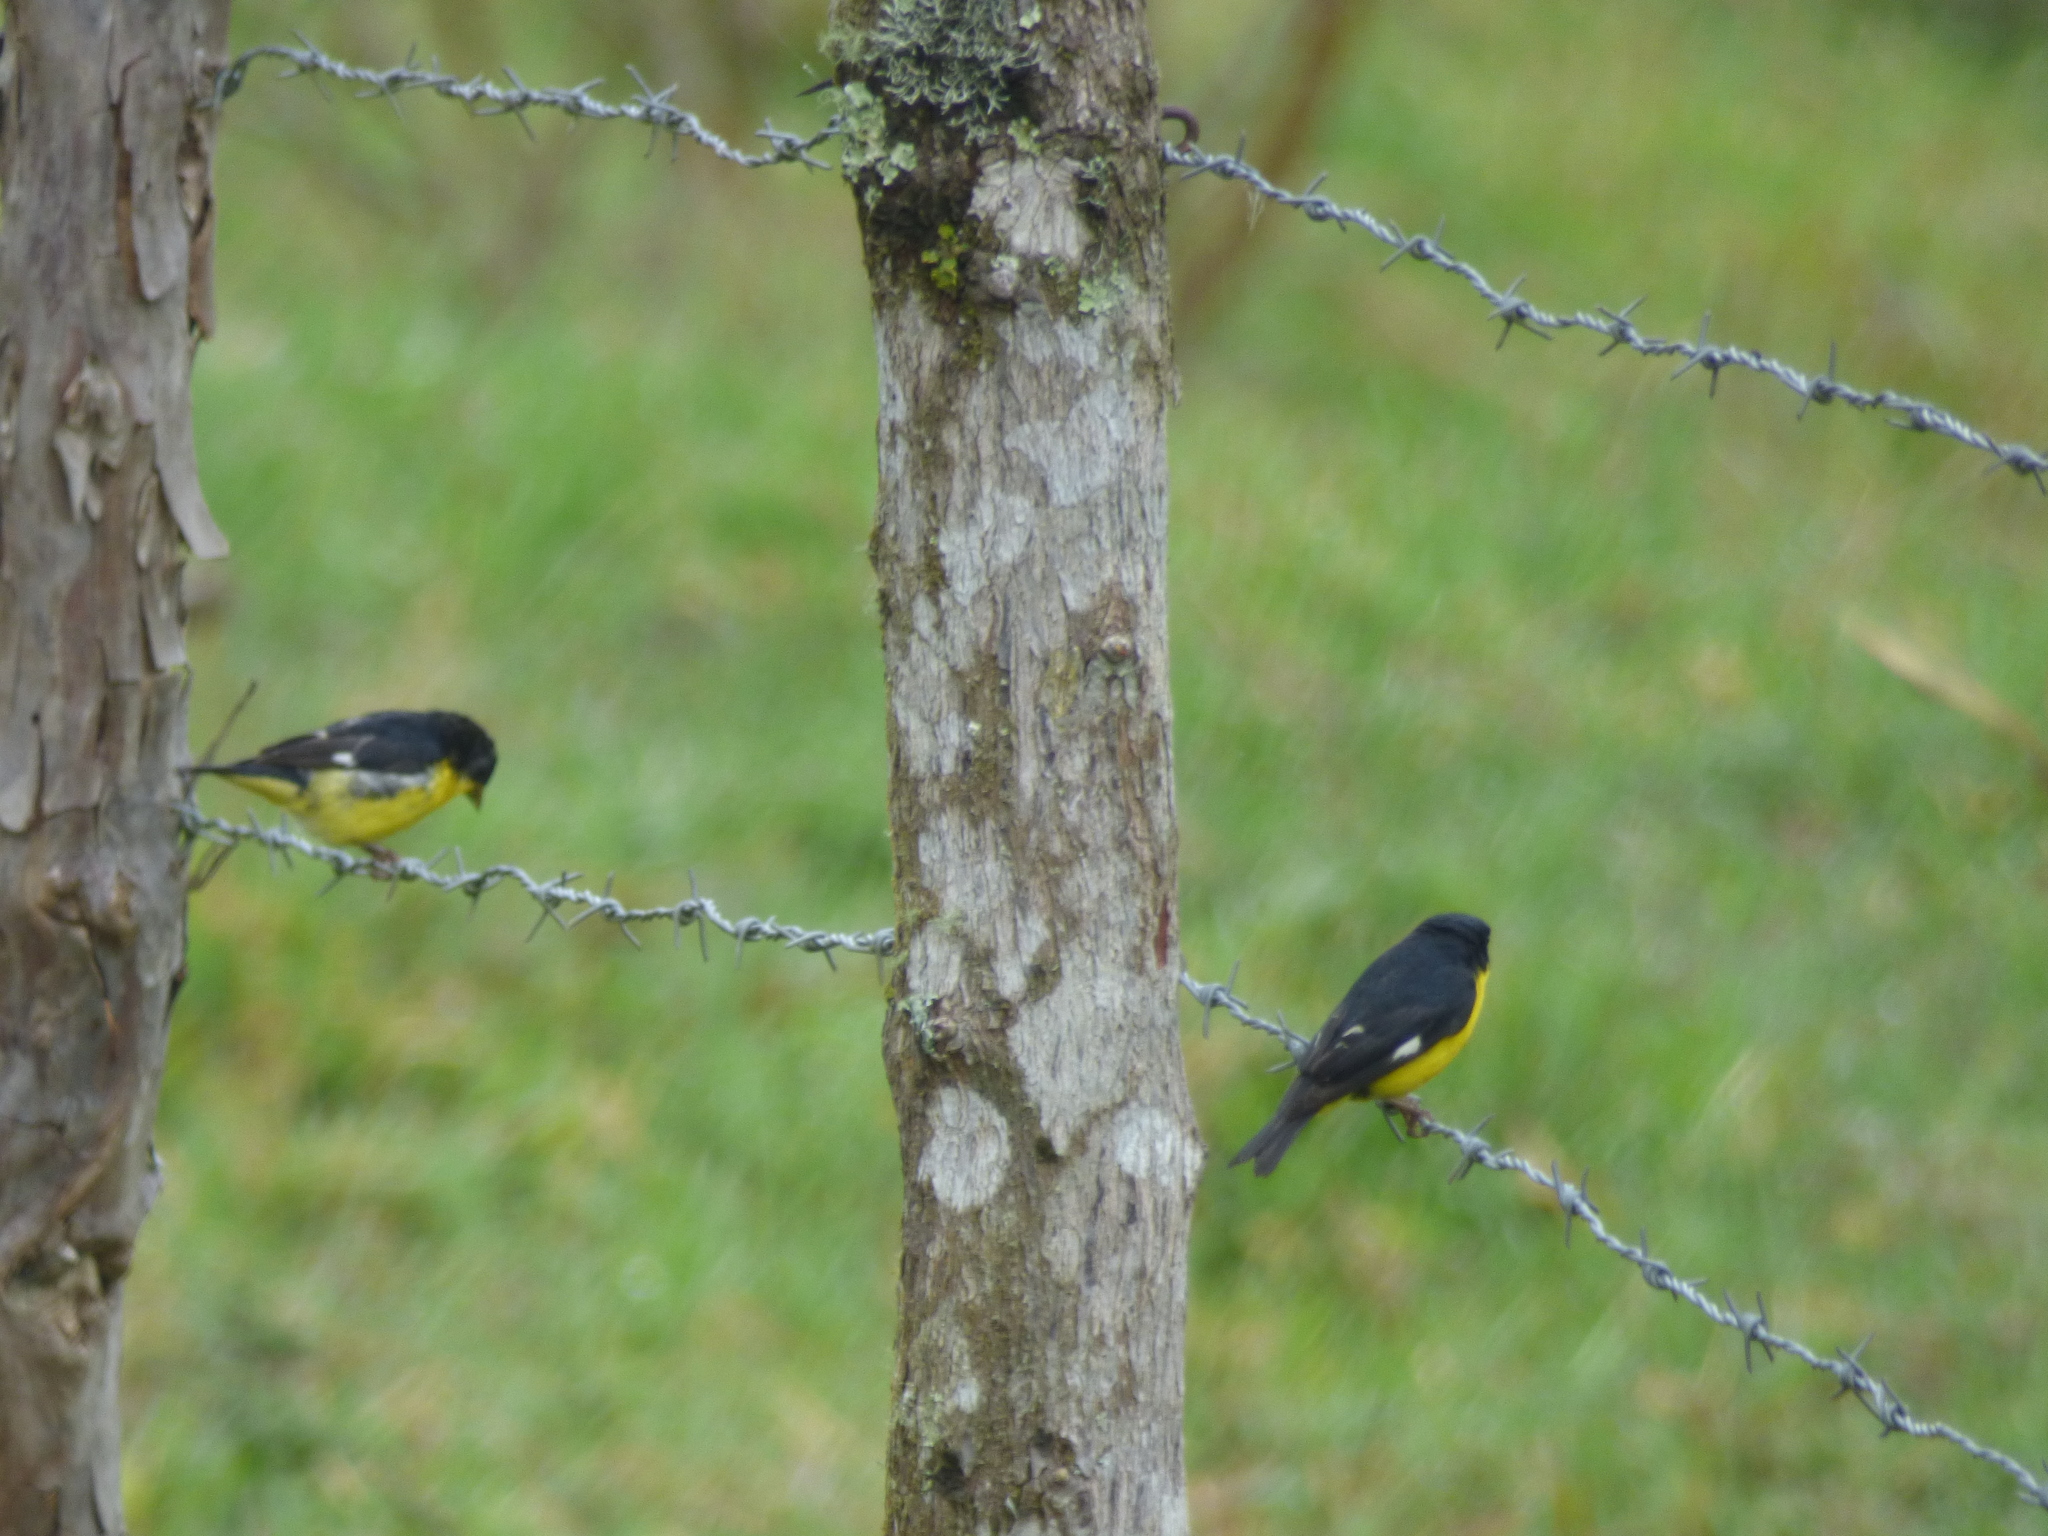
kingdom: Animalia
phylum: Chordata
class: Aves
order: Passeriformes
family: Fringillidae
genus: Spinus
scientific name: Spinus psaltria
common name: Lesser goldfinch
